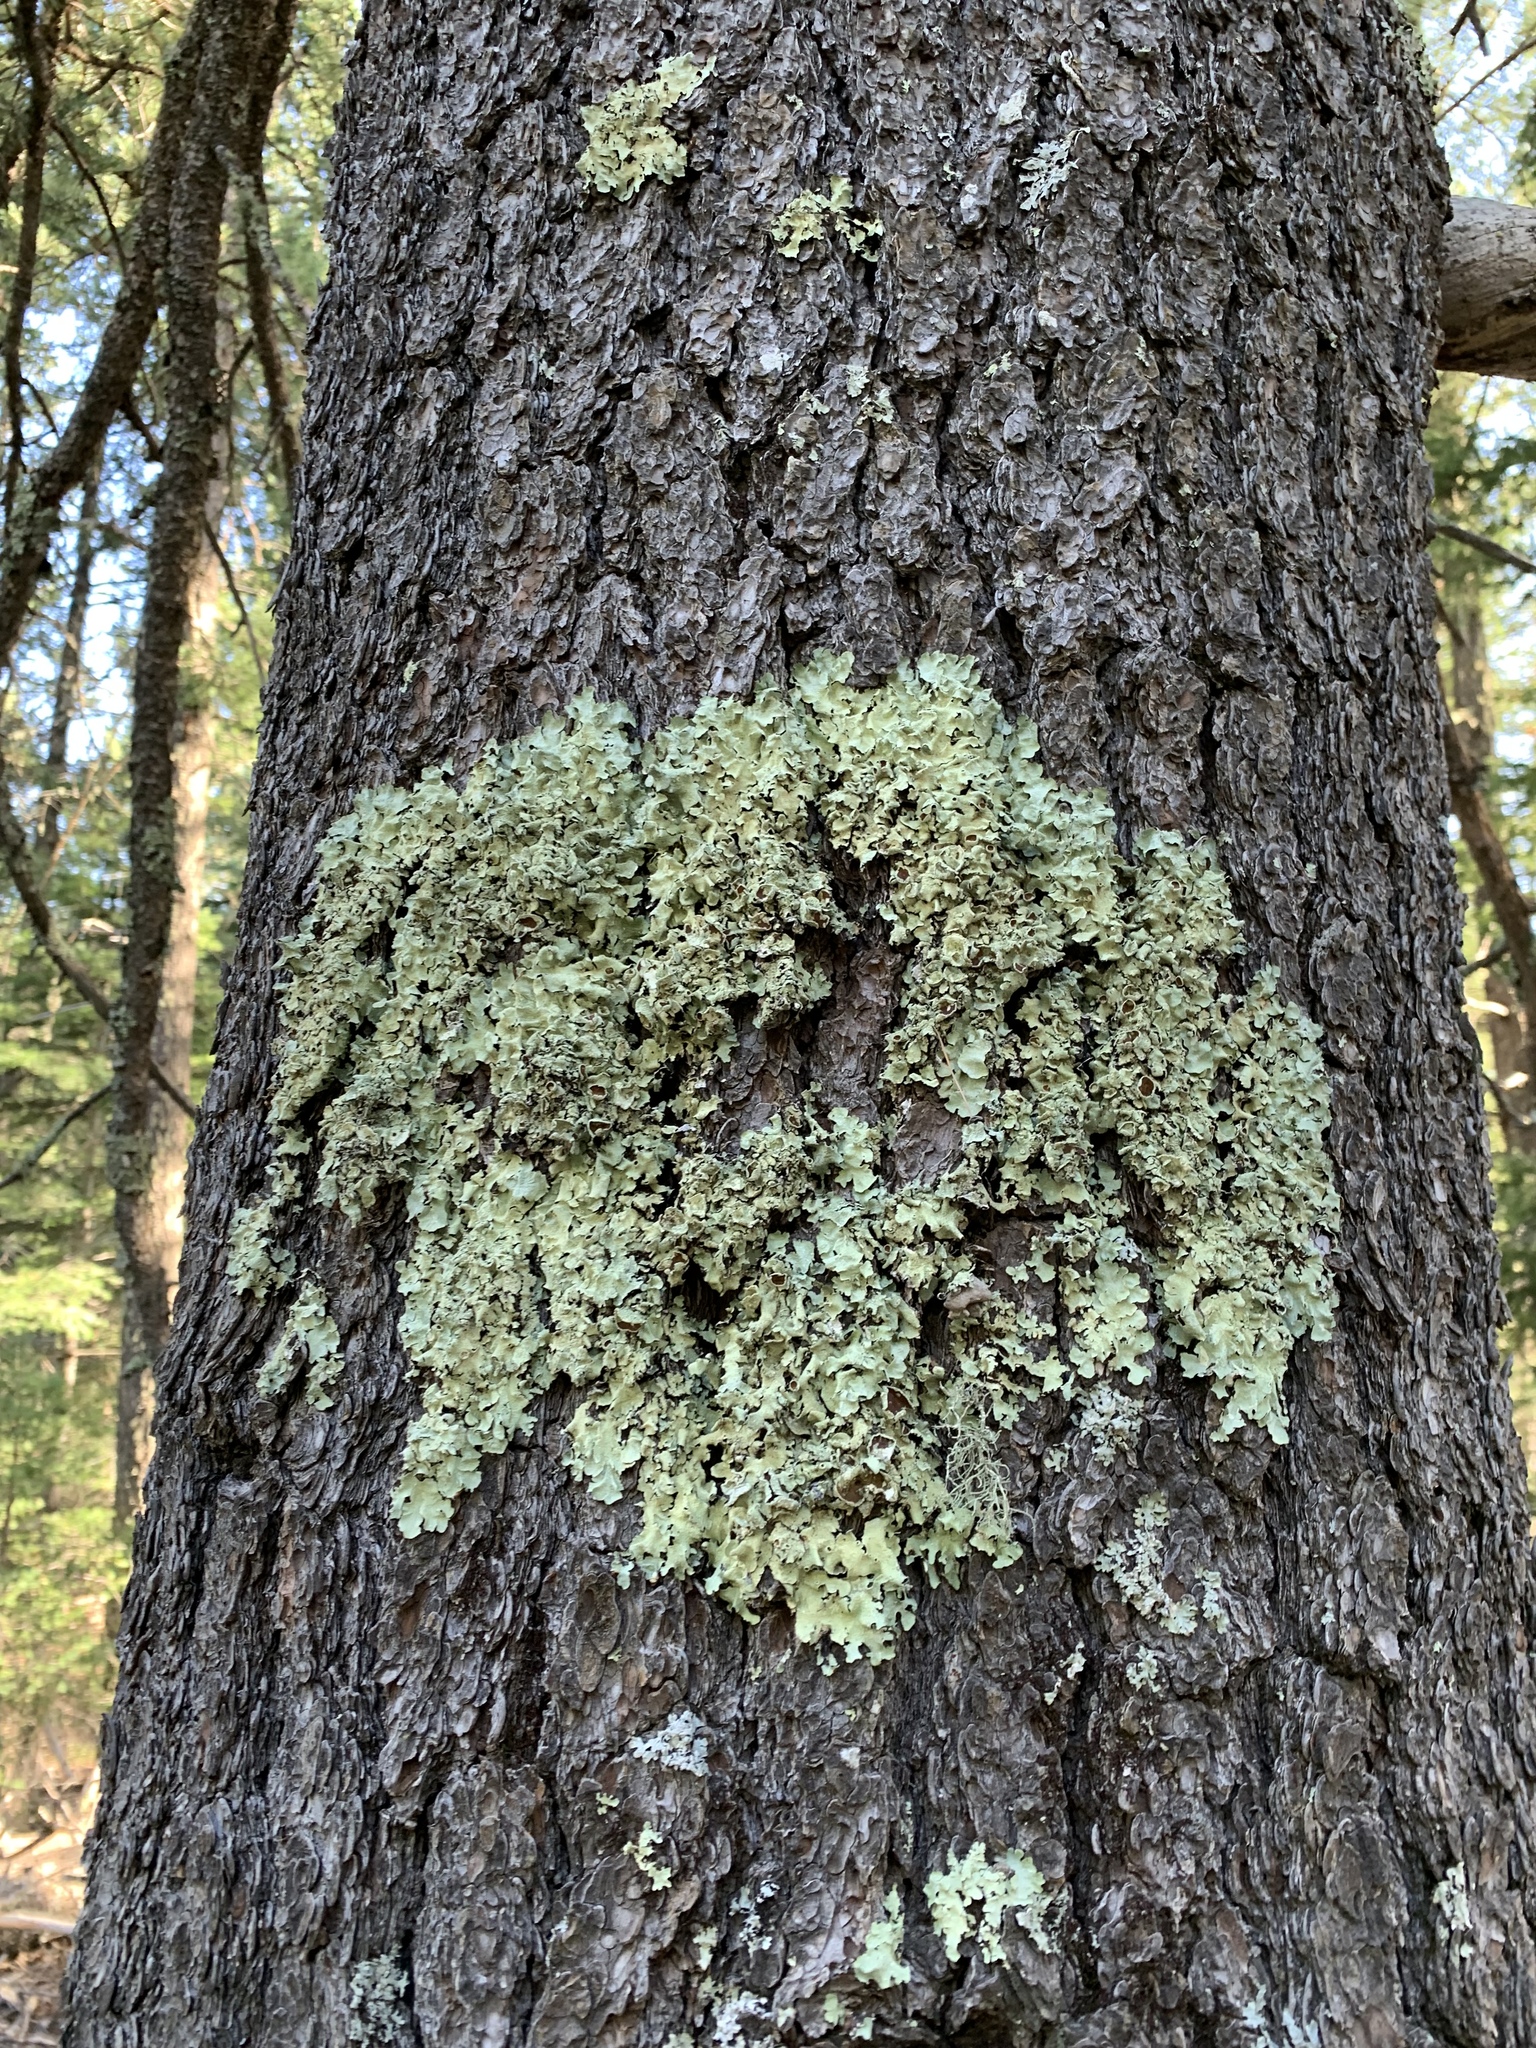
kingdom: Fungi
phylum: Ascomycota
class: Lecanoromycetes
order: Lecanorales
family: Parmeliaceae
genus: Flavopunctelia
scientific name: Flavopunctelia soredica
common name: Powder-edged speckled greenshield
